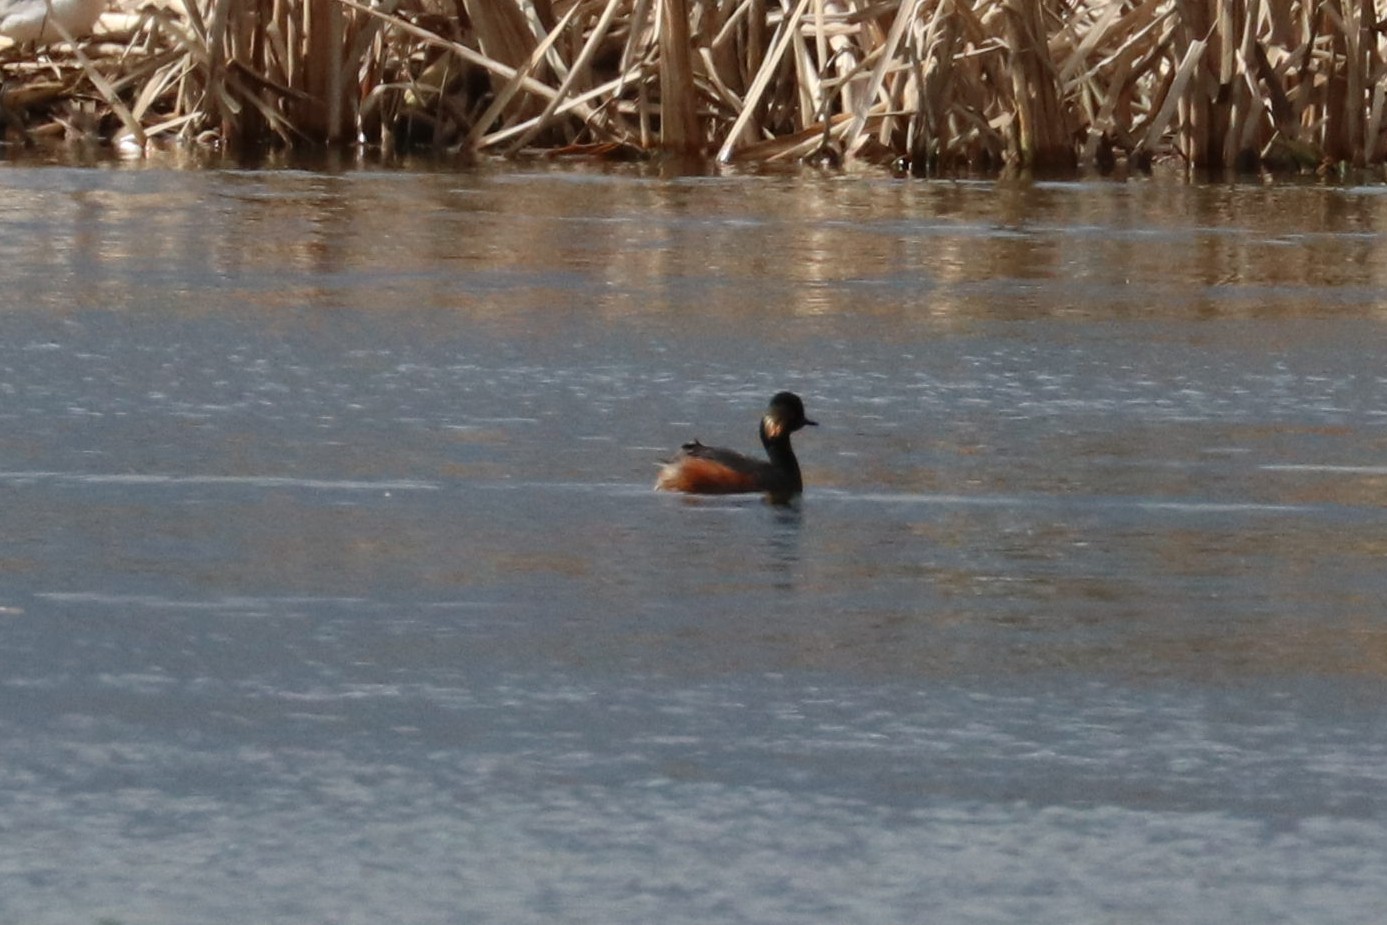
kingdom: Animalia
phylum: Chordata
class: Aves
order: Podicipediformes
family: Podicipedidae
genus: Podiceps
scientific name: Podiceps nigricollis
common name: Black-necked grebe
